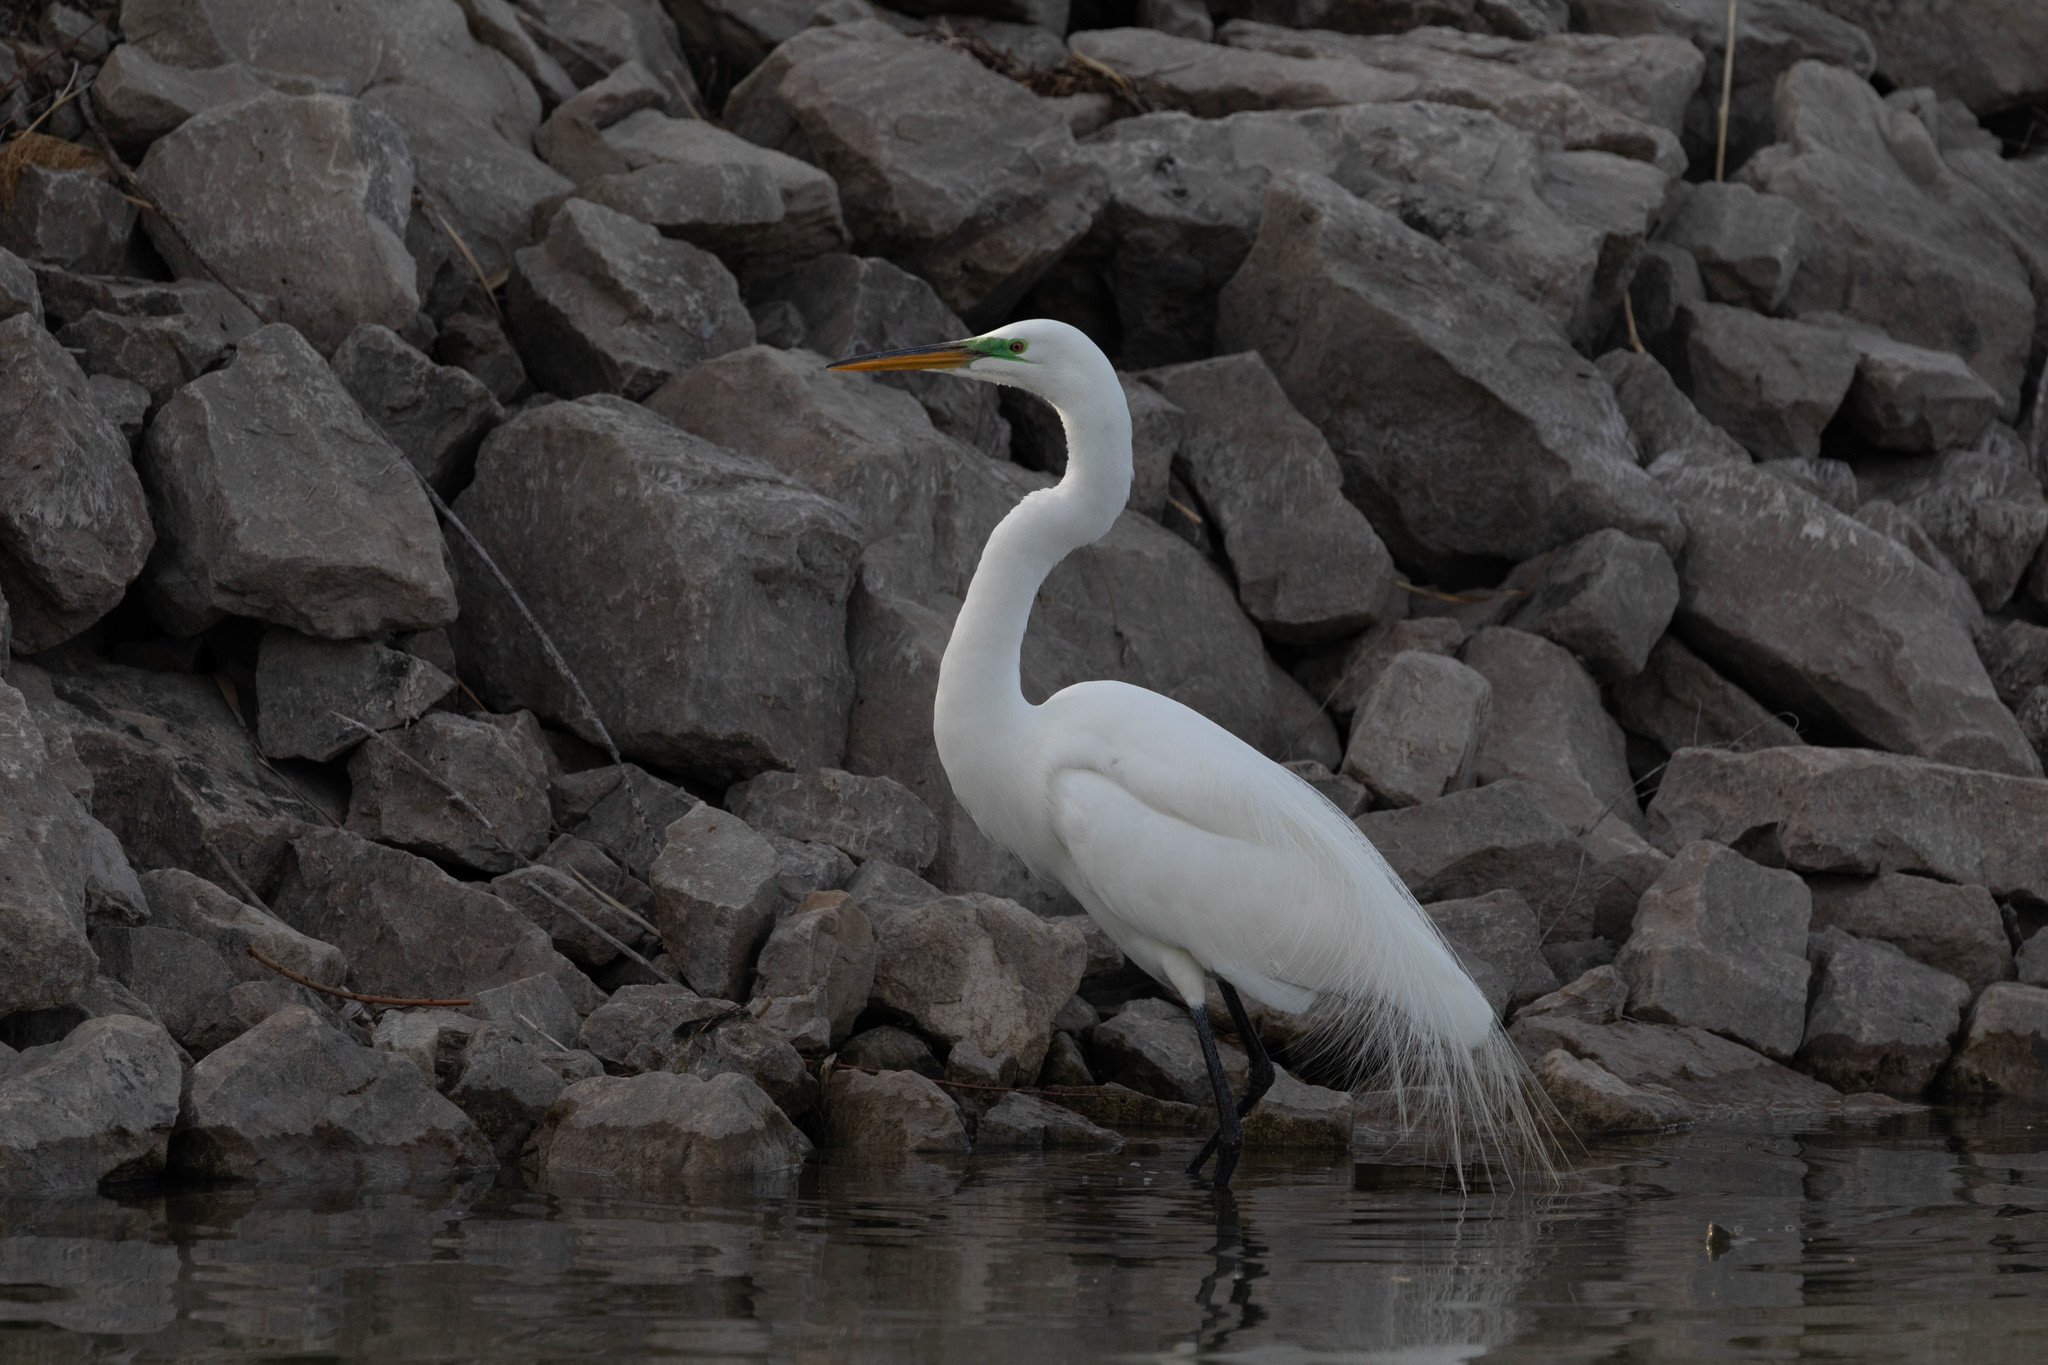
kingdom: Animalia
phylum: Chordata
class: Aves
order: Pelecaniformes
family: Ardeidae
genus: Ardea
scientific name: Ardea alba
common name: Great egret
